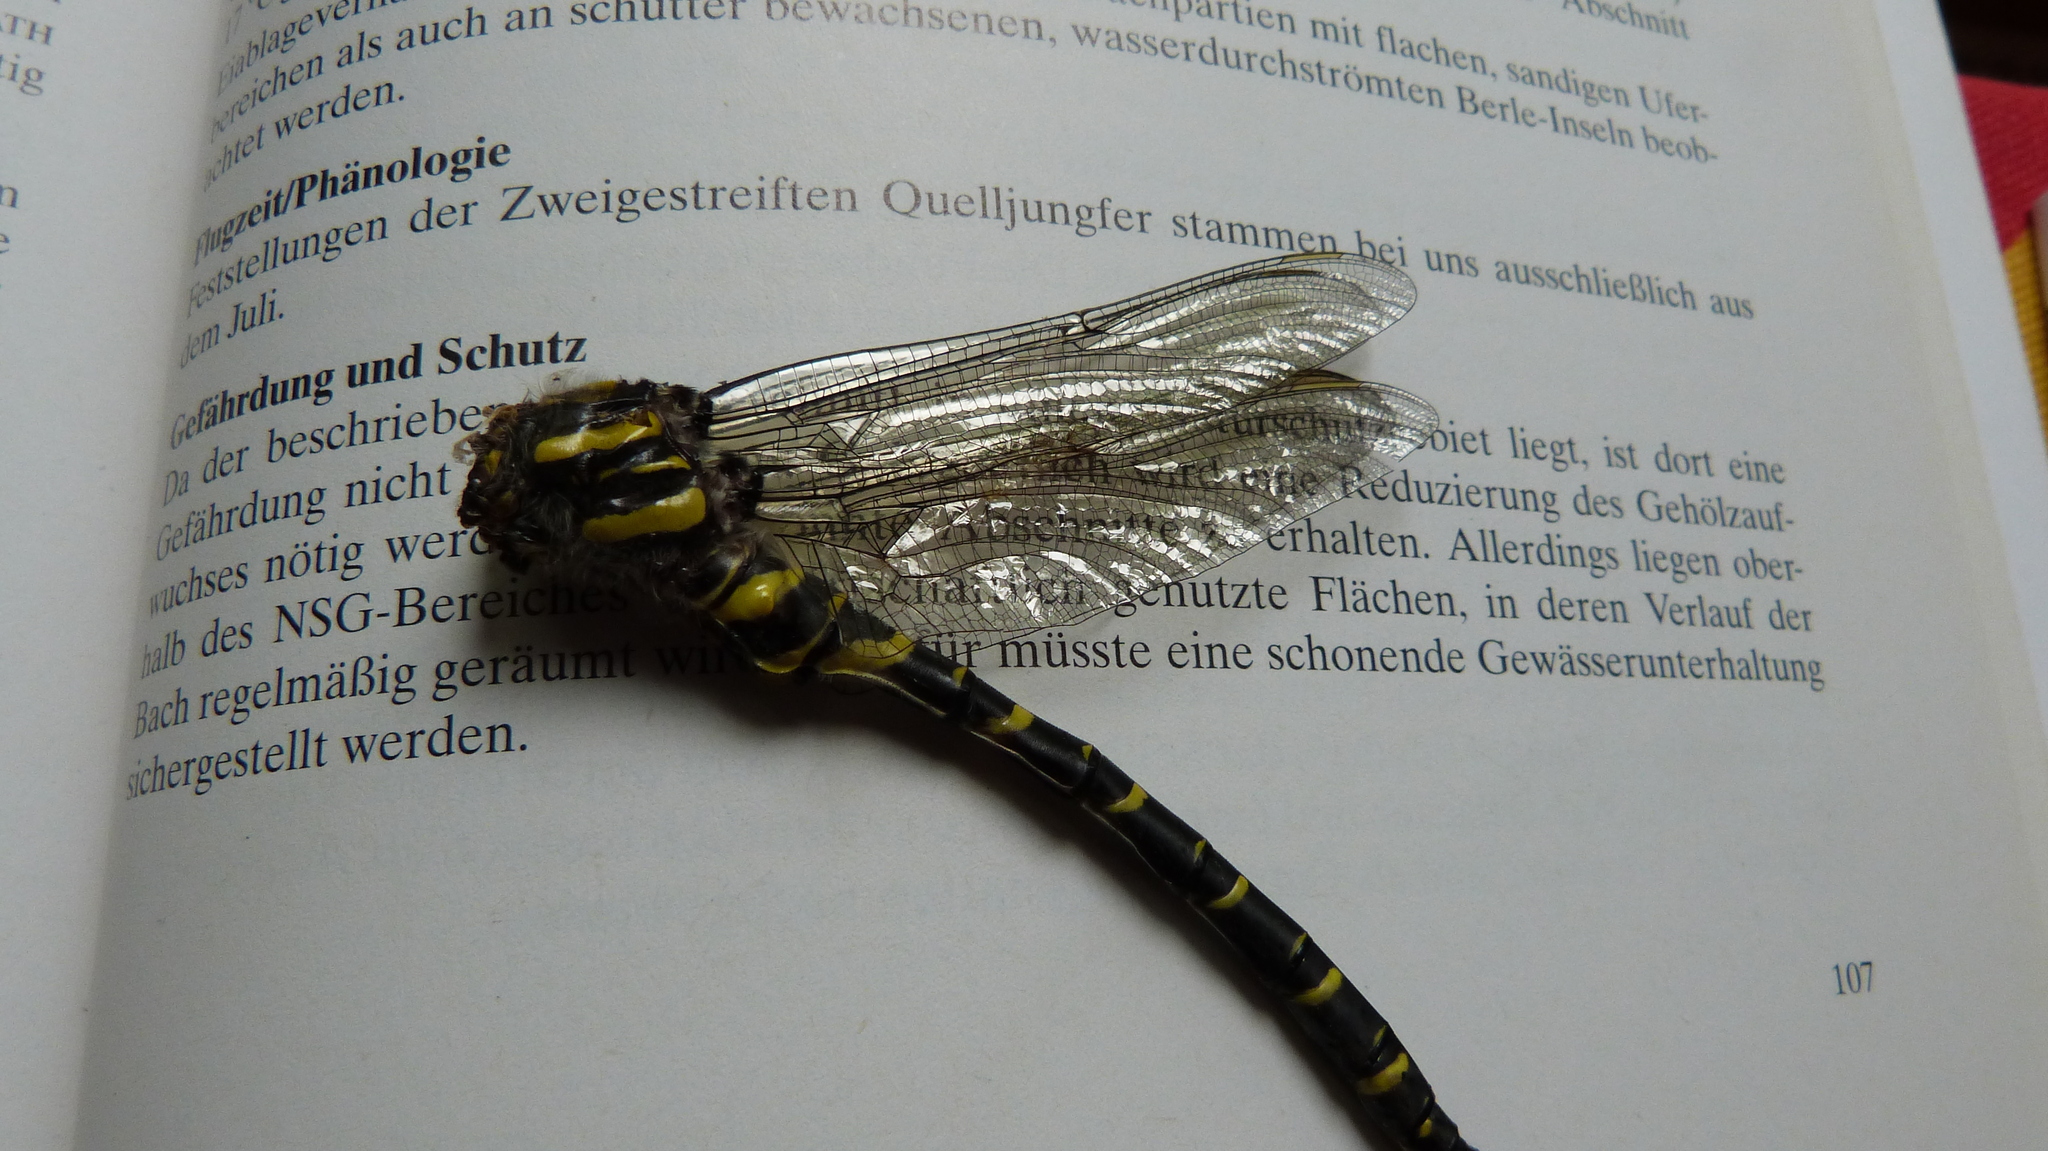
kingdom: Animalia
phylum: Arthropoda
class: Insecta
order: Odonata
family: Cordulegastridae
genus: Cordulegaster
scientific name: Cordulegaster boltonii
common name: Golden-ringed dragonfly
